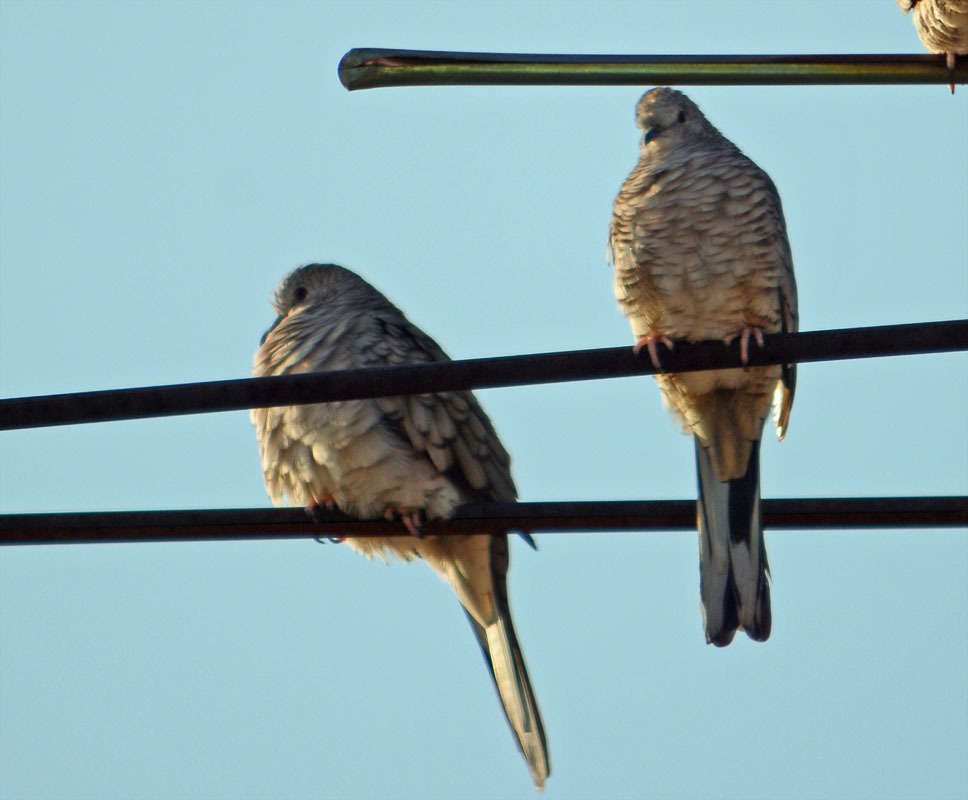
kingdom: Animalia
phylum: Chordata
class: Aves
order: Columbiformes
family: Columbidae
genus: Columbina
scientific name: Columbina inca
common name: Inca dove
